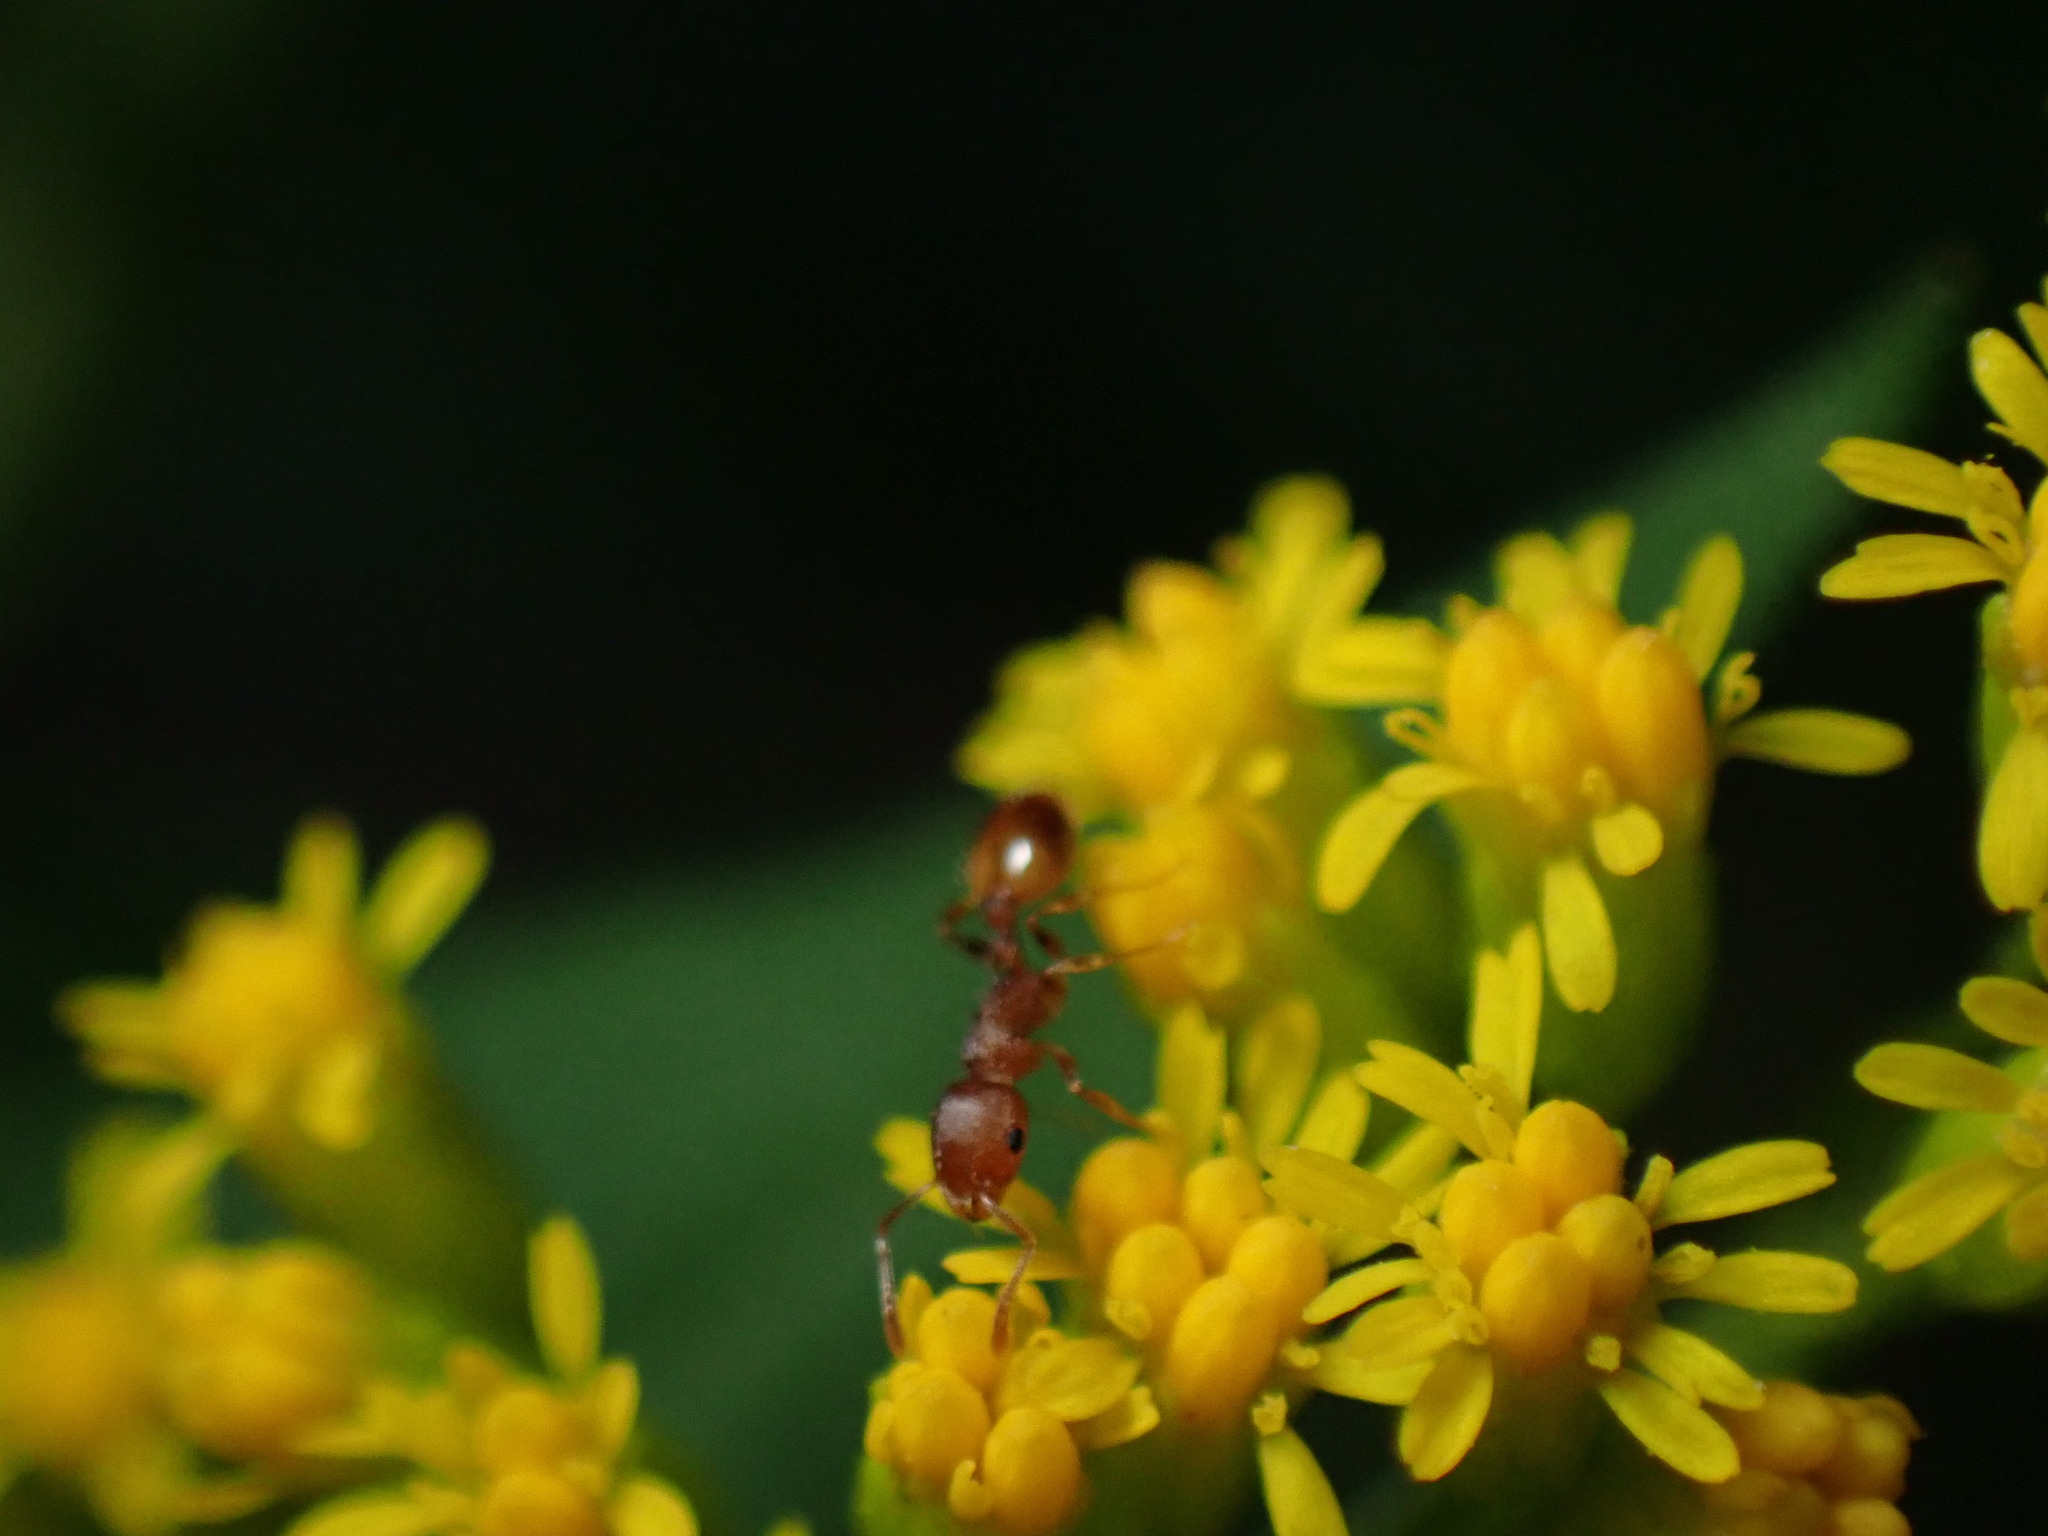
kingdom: Animalia
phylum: Arthropoda
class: Insecta
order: Hymenoptera
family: Formicidae
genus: Temnothorax
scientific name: Temnothorax curvispinosus
